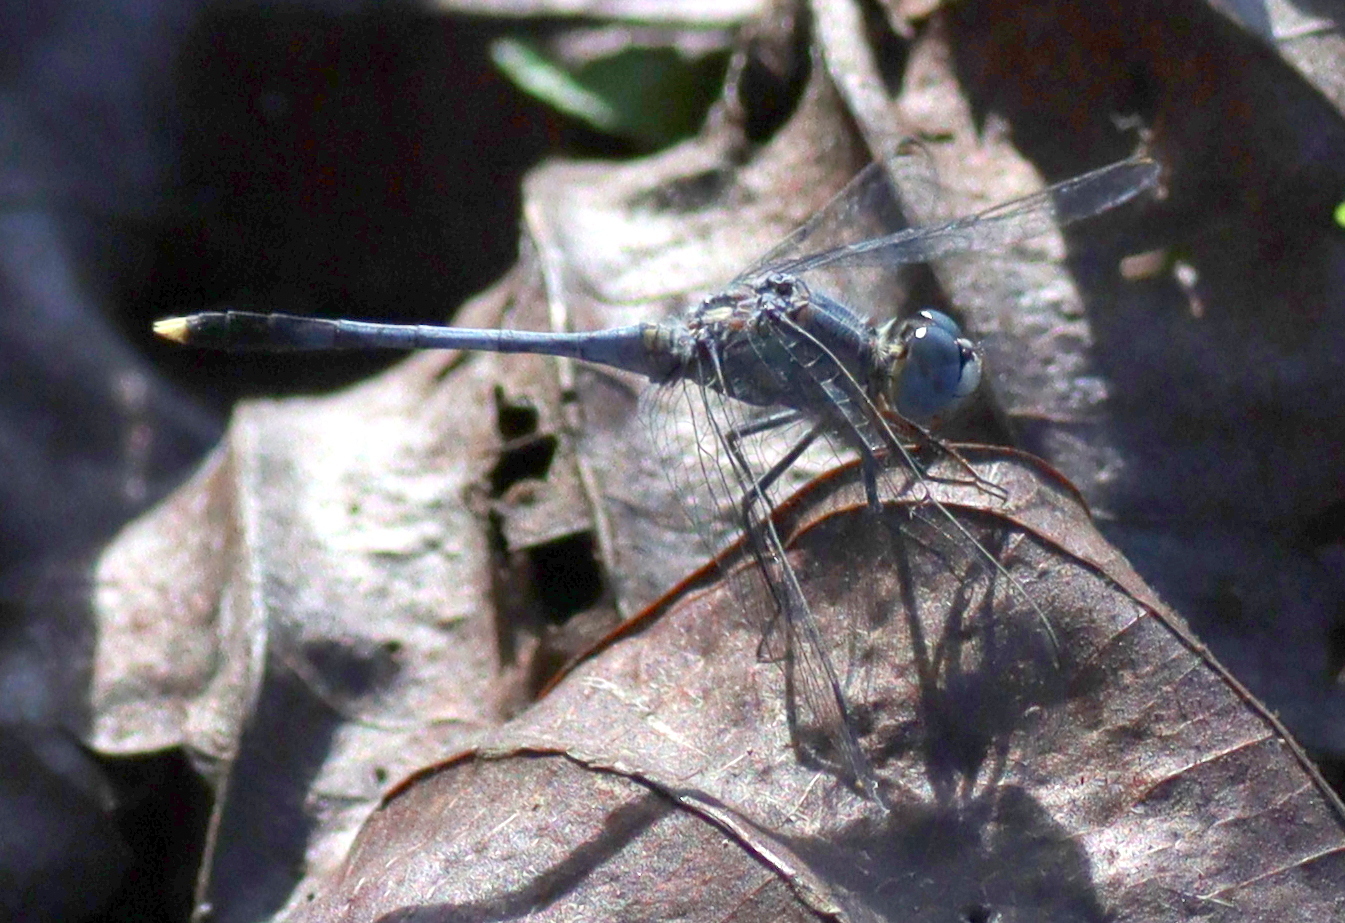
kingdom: Animalia
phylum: Arthropoda
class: Insecta
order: Odonata
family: Libellulidae
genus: Diplacodes
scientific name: Diplacodes trivialis
